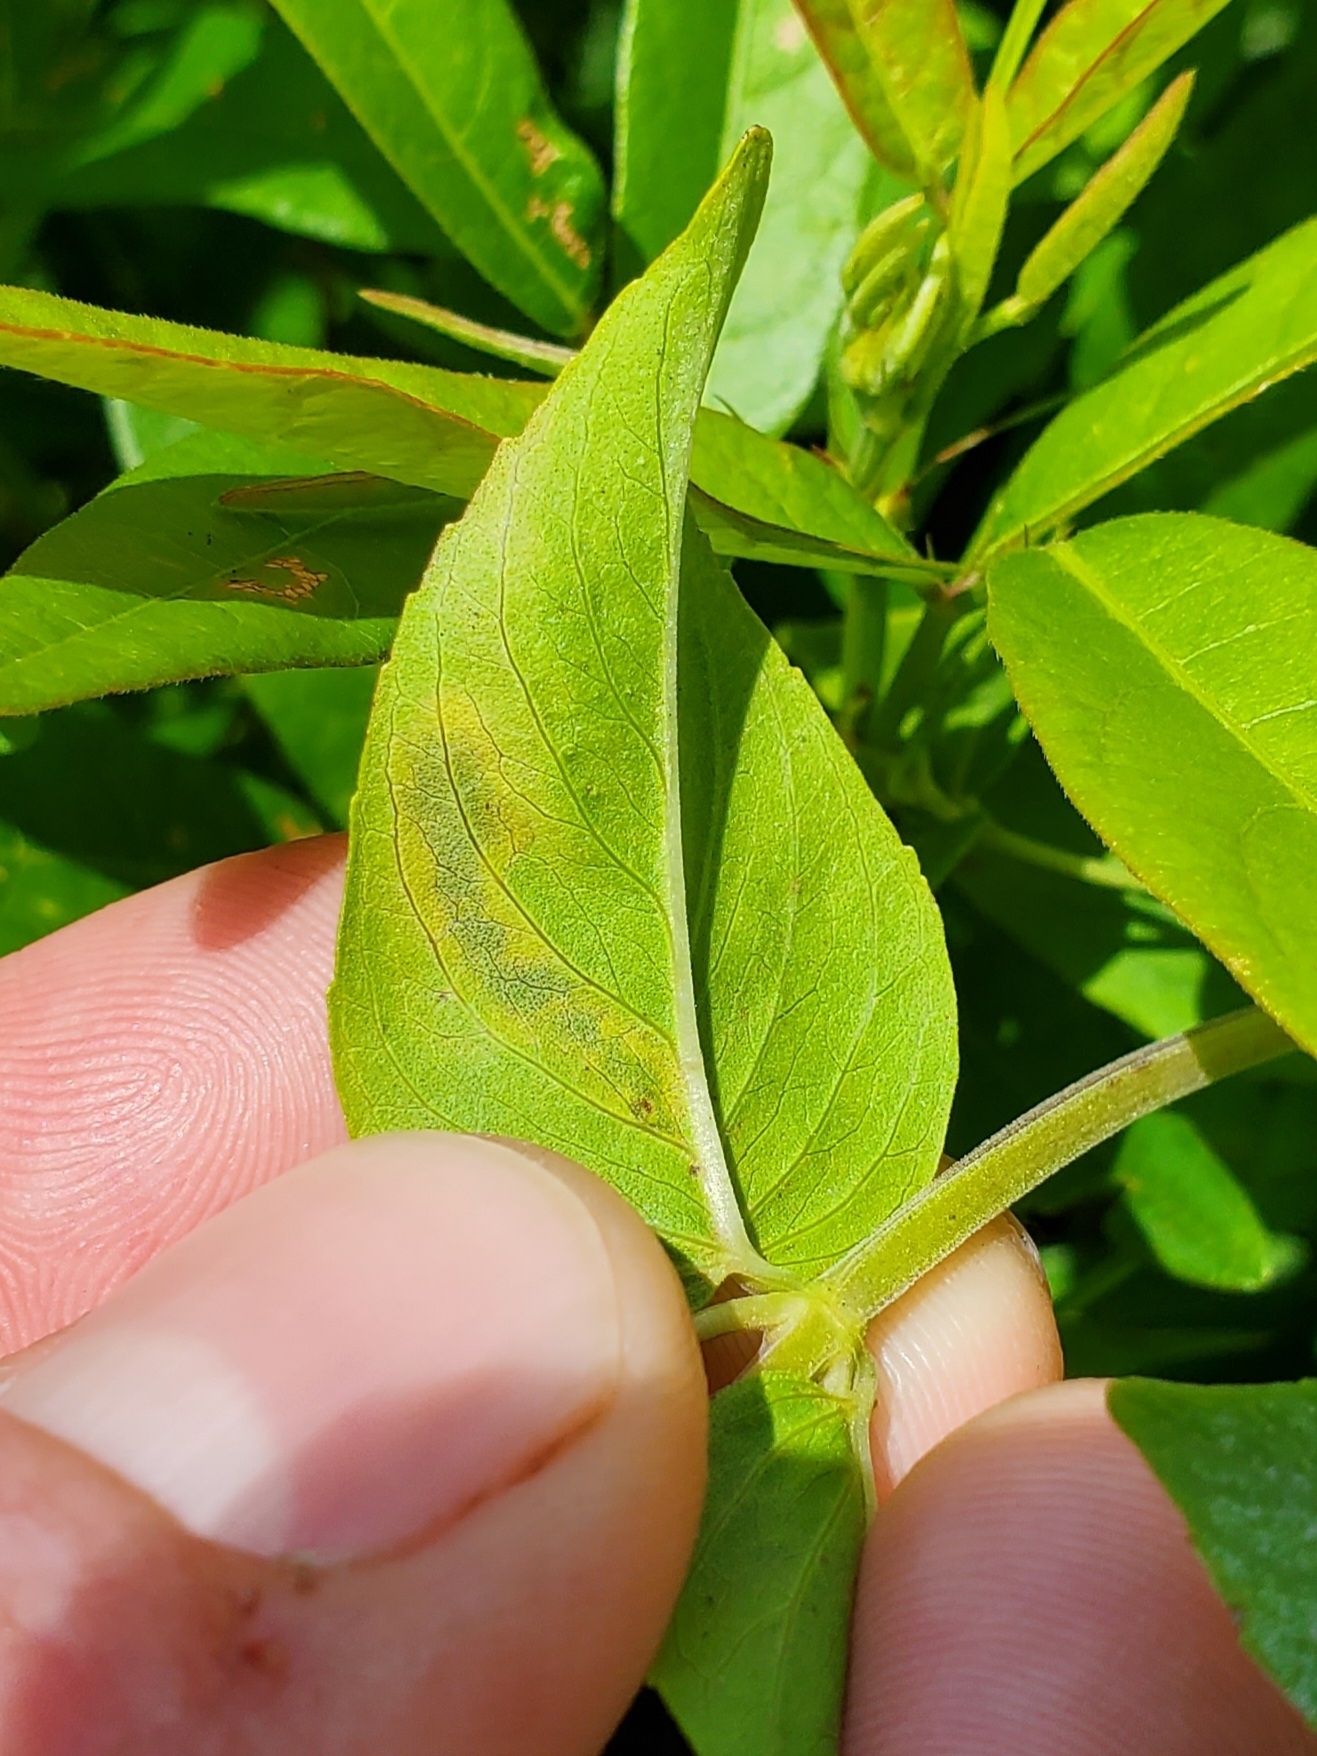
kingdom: Animalia
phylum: Arthropoda
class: Insecta
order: Diptera
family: Agromyzidae
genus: Calycomyza
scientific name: Calycomyza menthae
